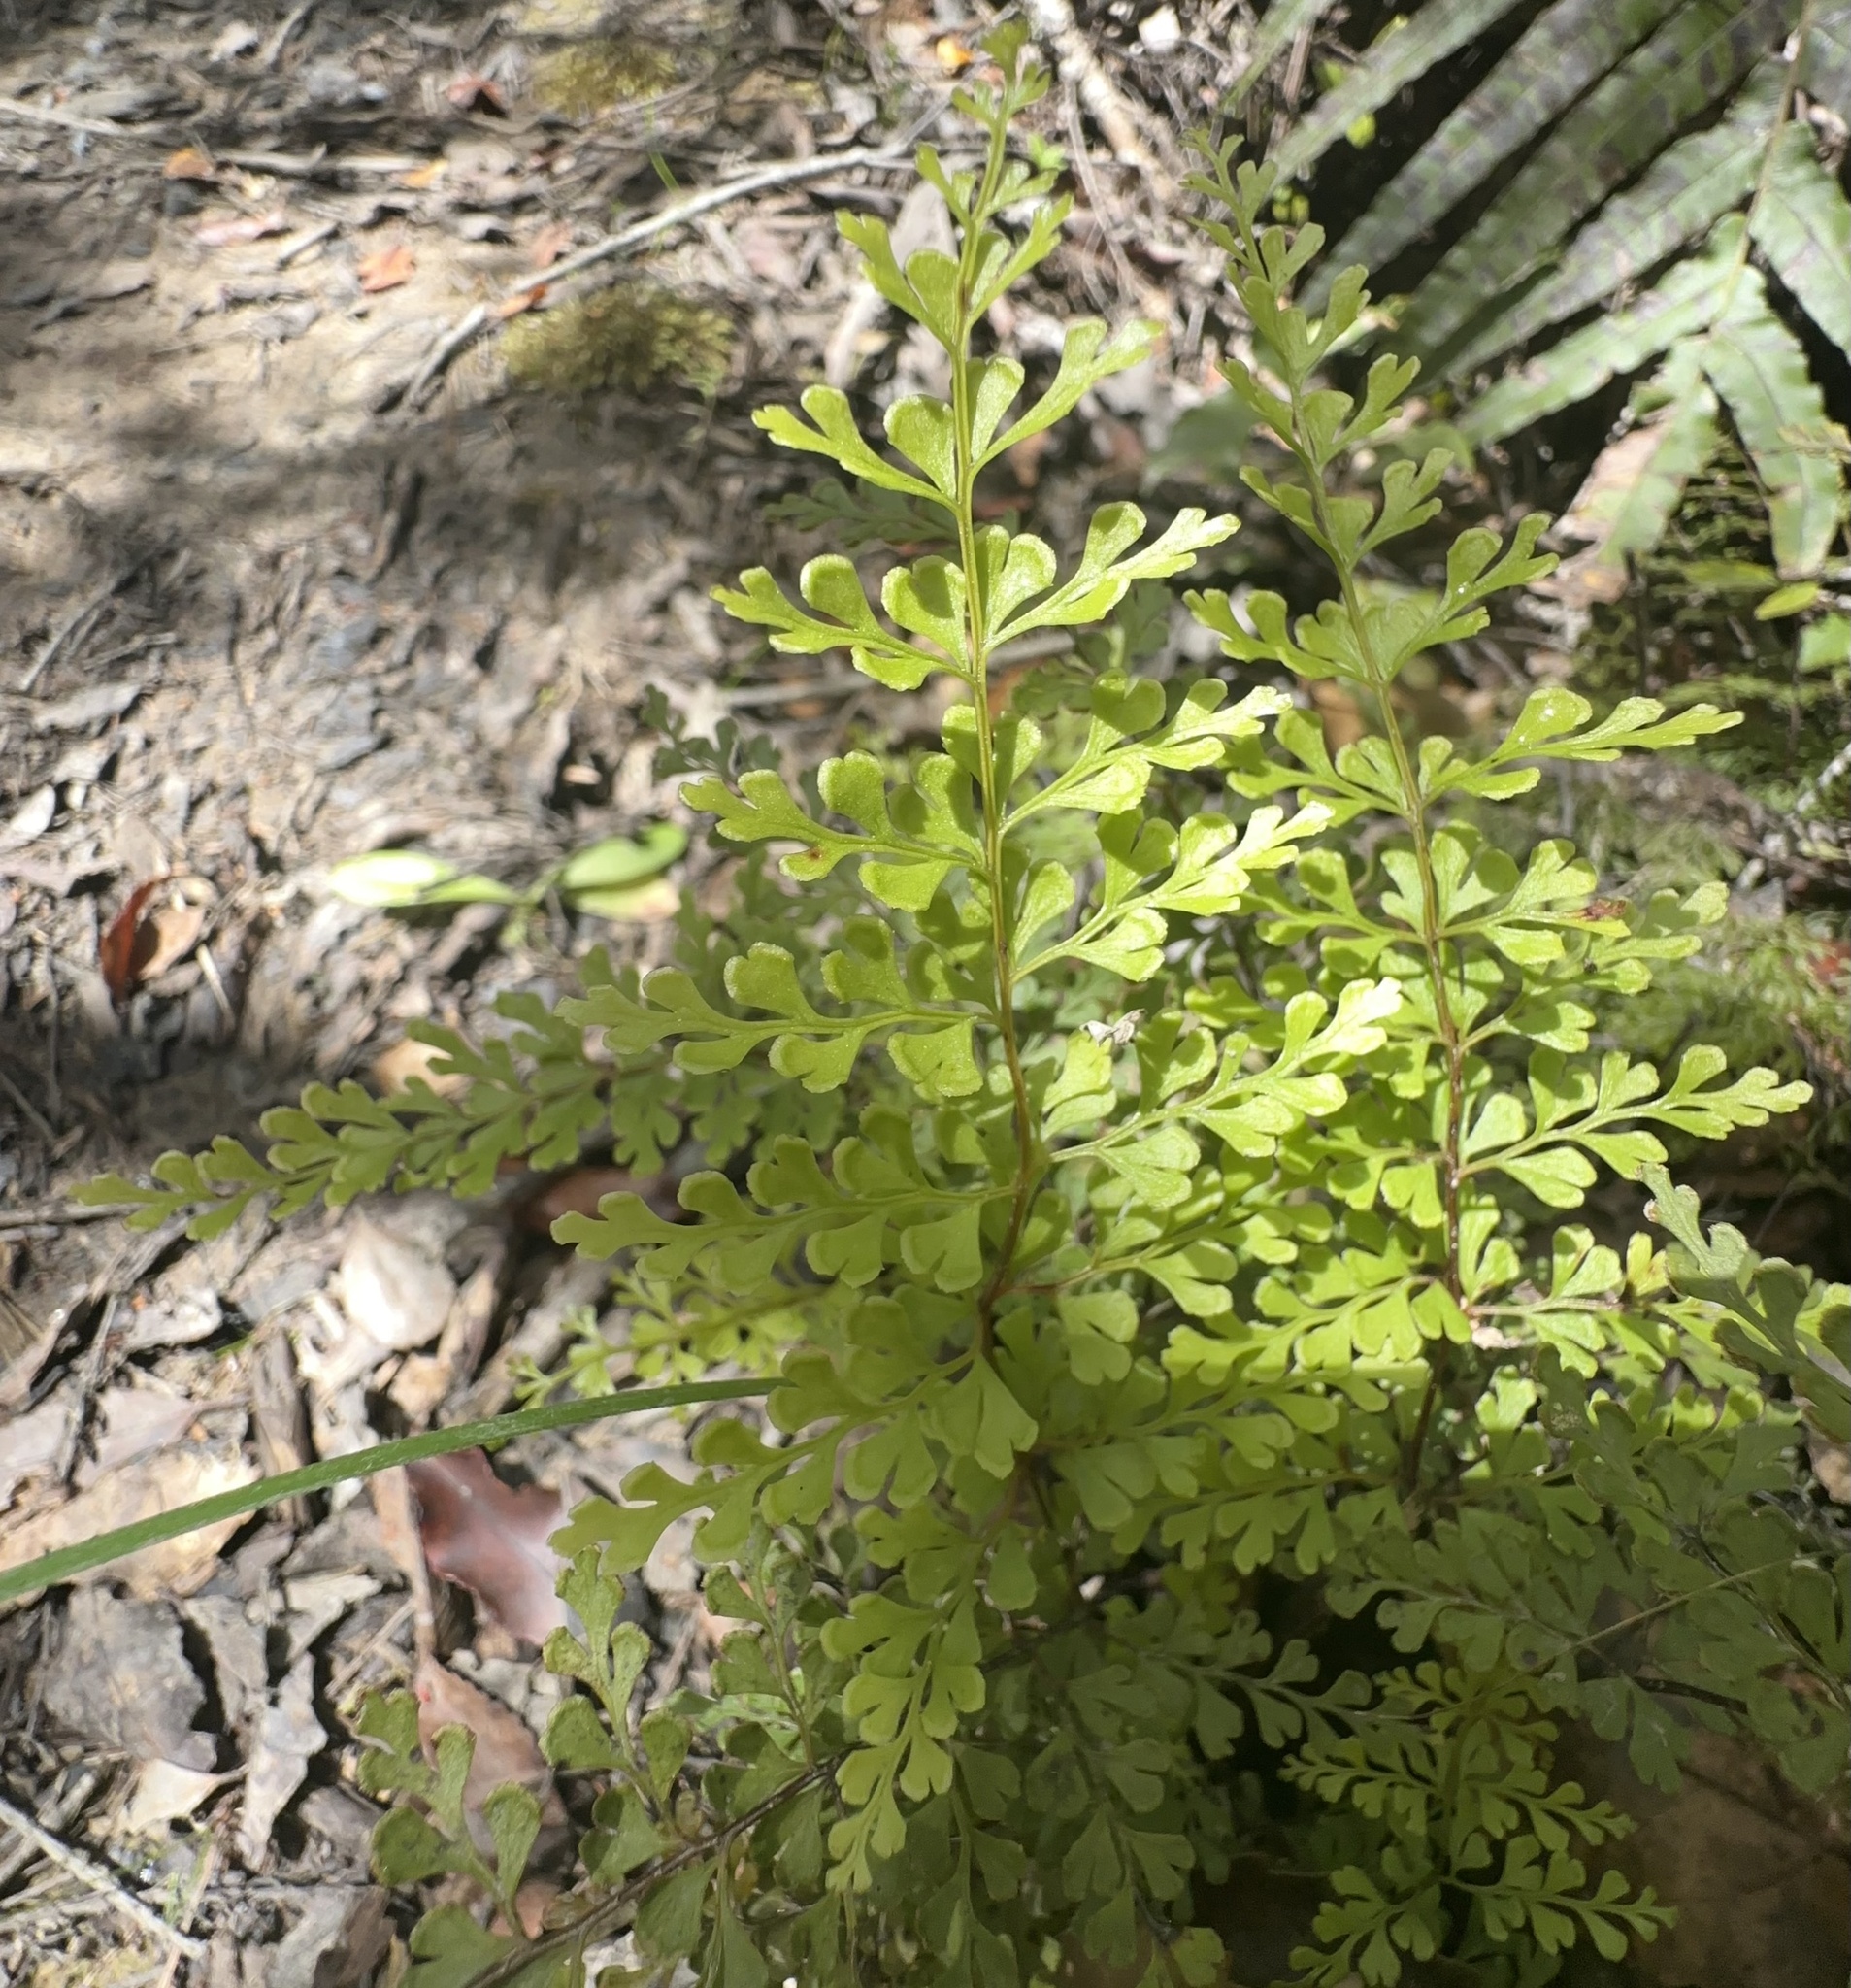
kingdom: Plantae
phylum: Tracheophyta
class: Polypodiopsida
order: Polypodiales
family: Lindsaeaceae
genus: Lindsaea
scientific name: Lindsaea trichomanoides
